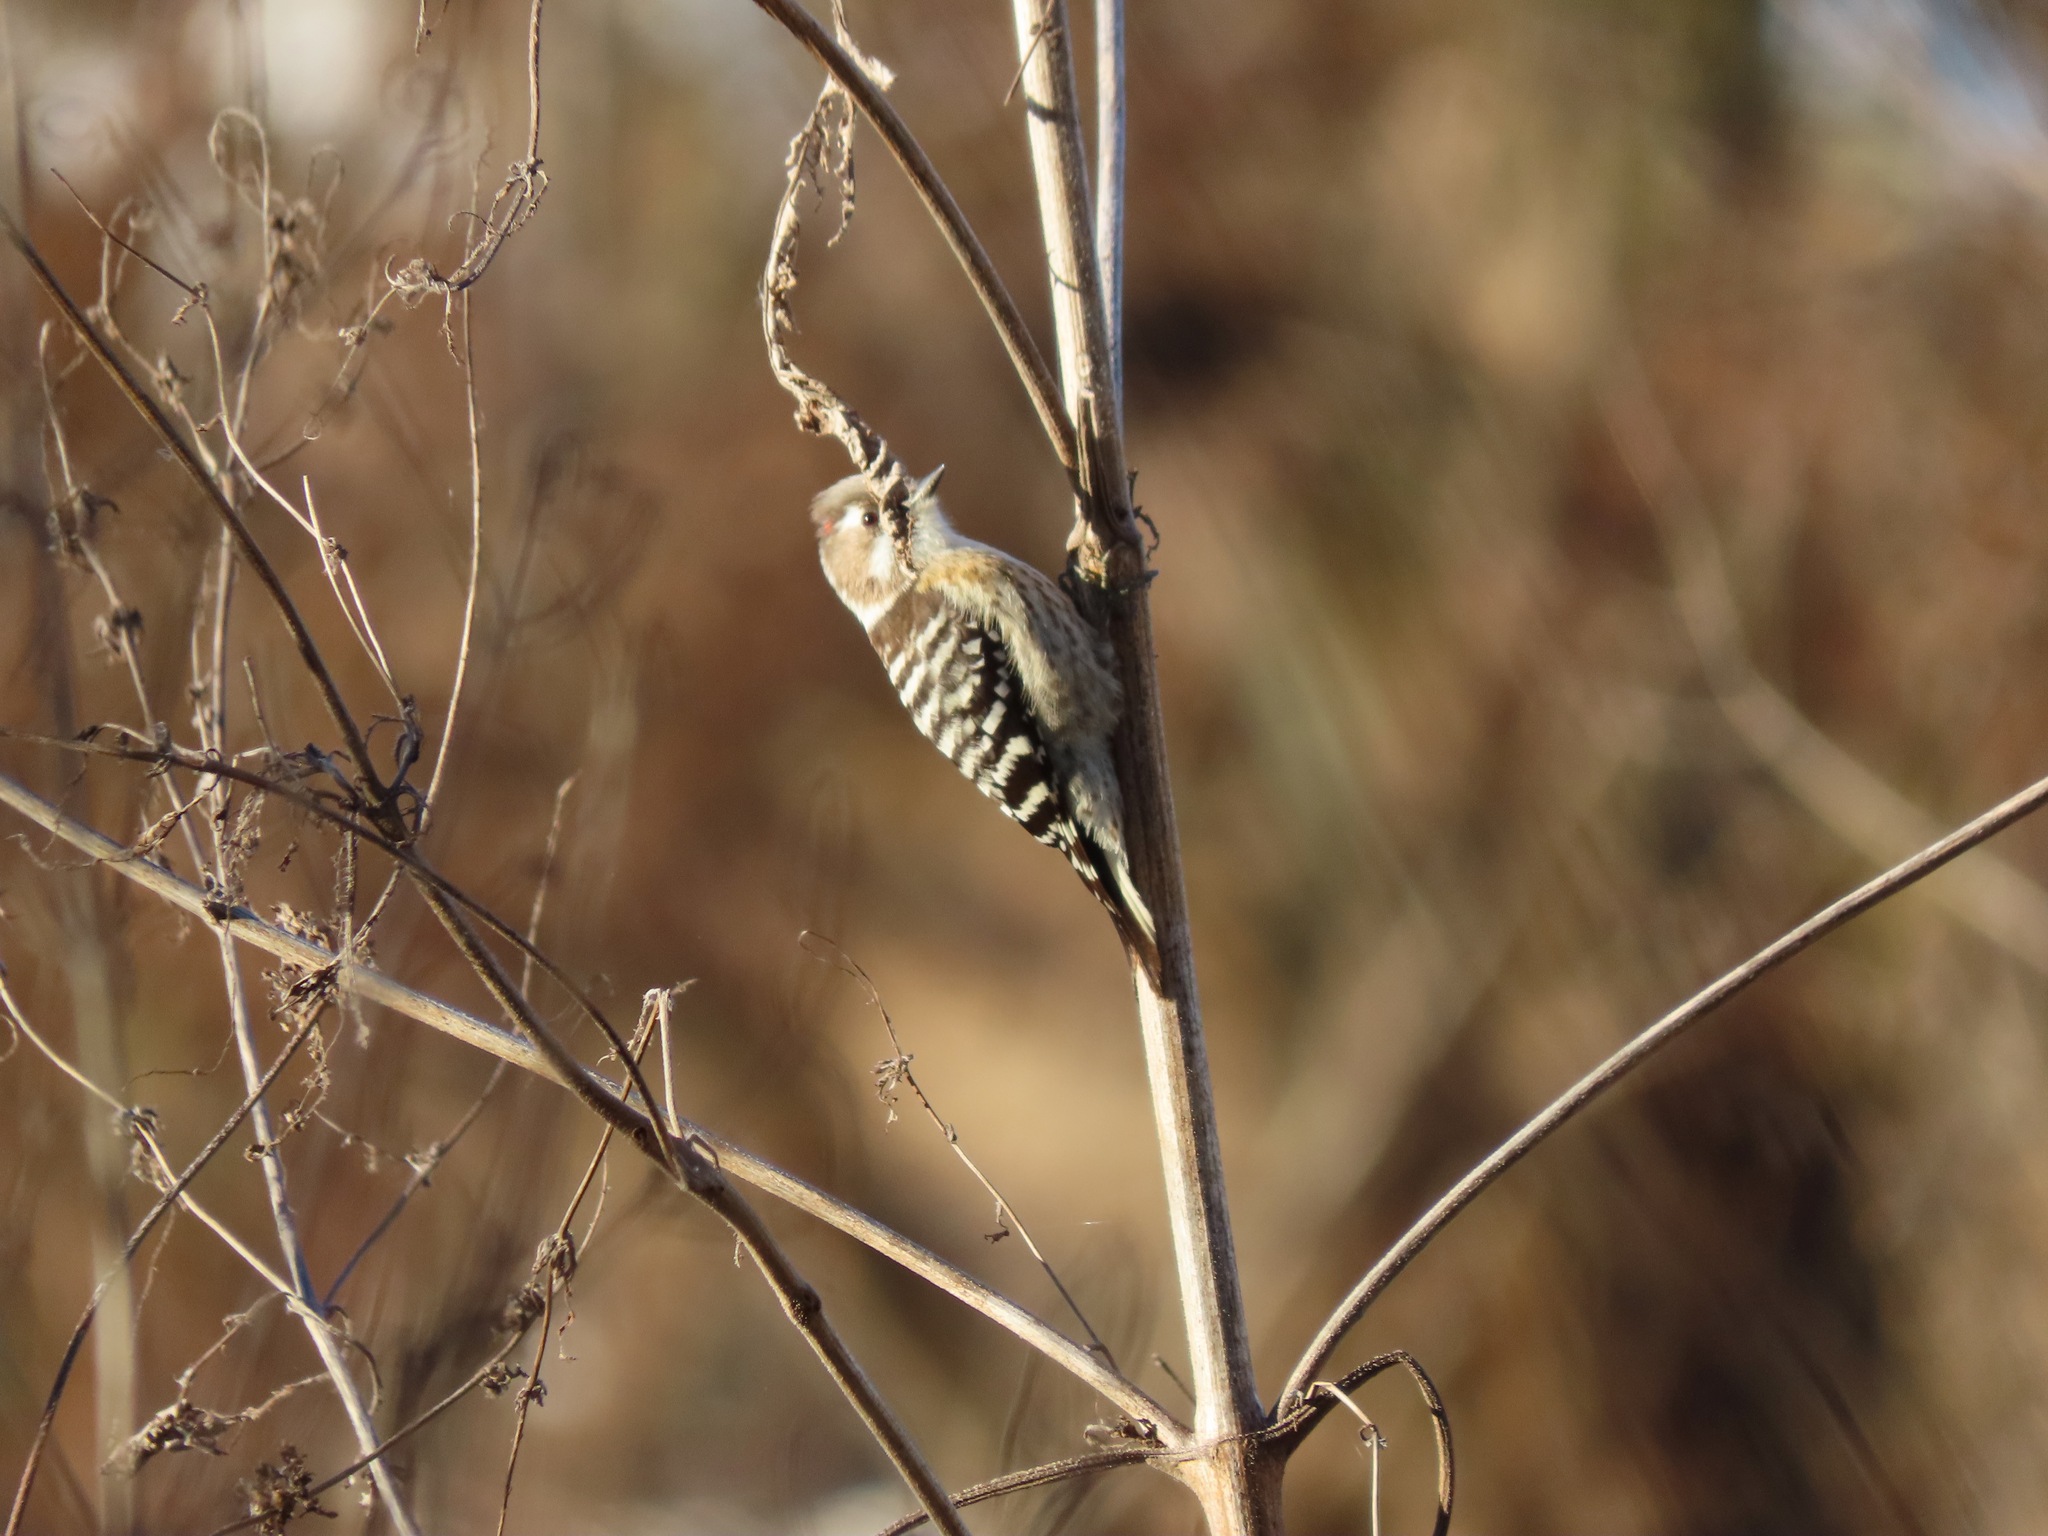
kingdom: Animalia
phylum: Chordata
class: Aves
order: Piciformes
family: Picidae
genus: Yungipicus
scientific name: Yungipicus kizuki
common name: Japanese pygmy woodpecker
